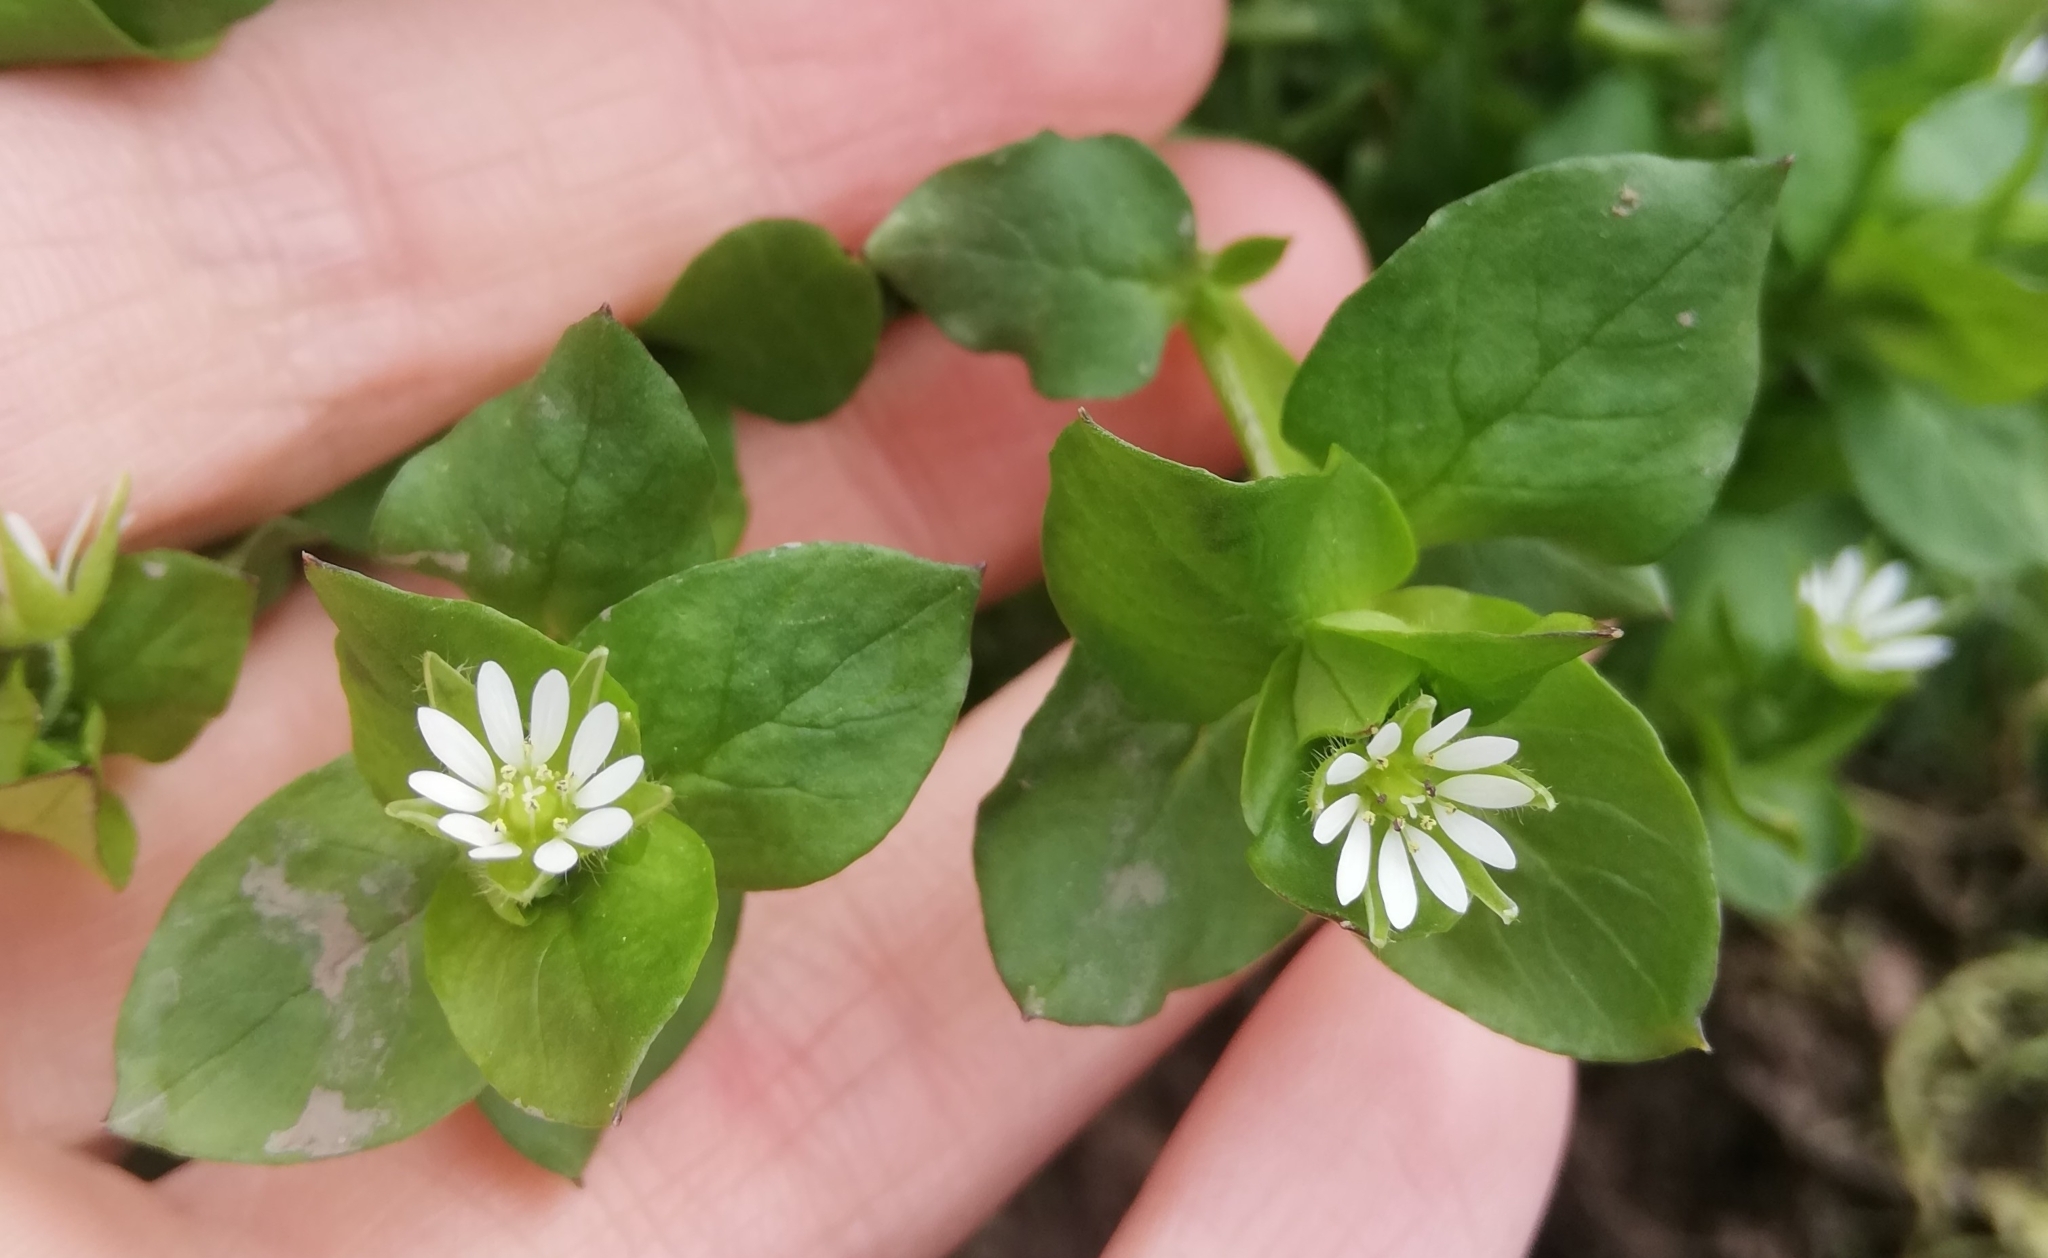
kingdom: Plantae
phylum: Tracheophyta
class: Magnoliopsida
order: Caryophyllales
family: Caryophyllaceae
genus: Stellaria
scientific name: Stellaria media
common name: Common chickweed
